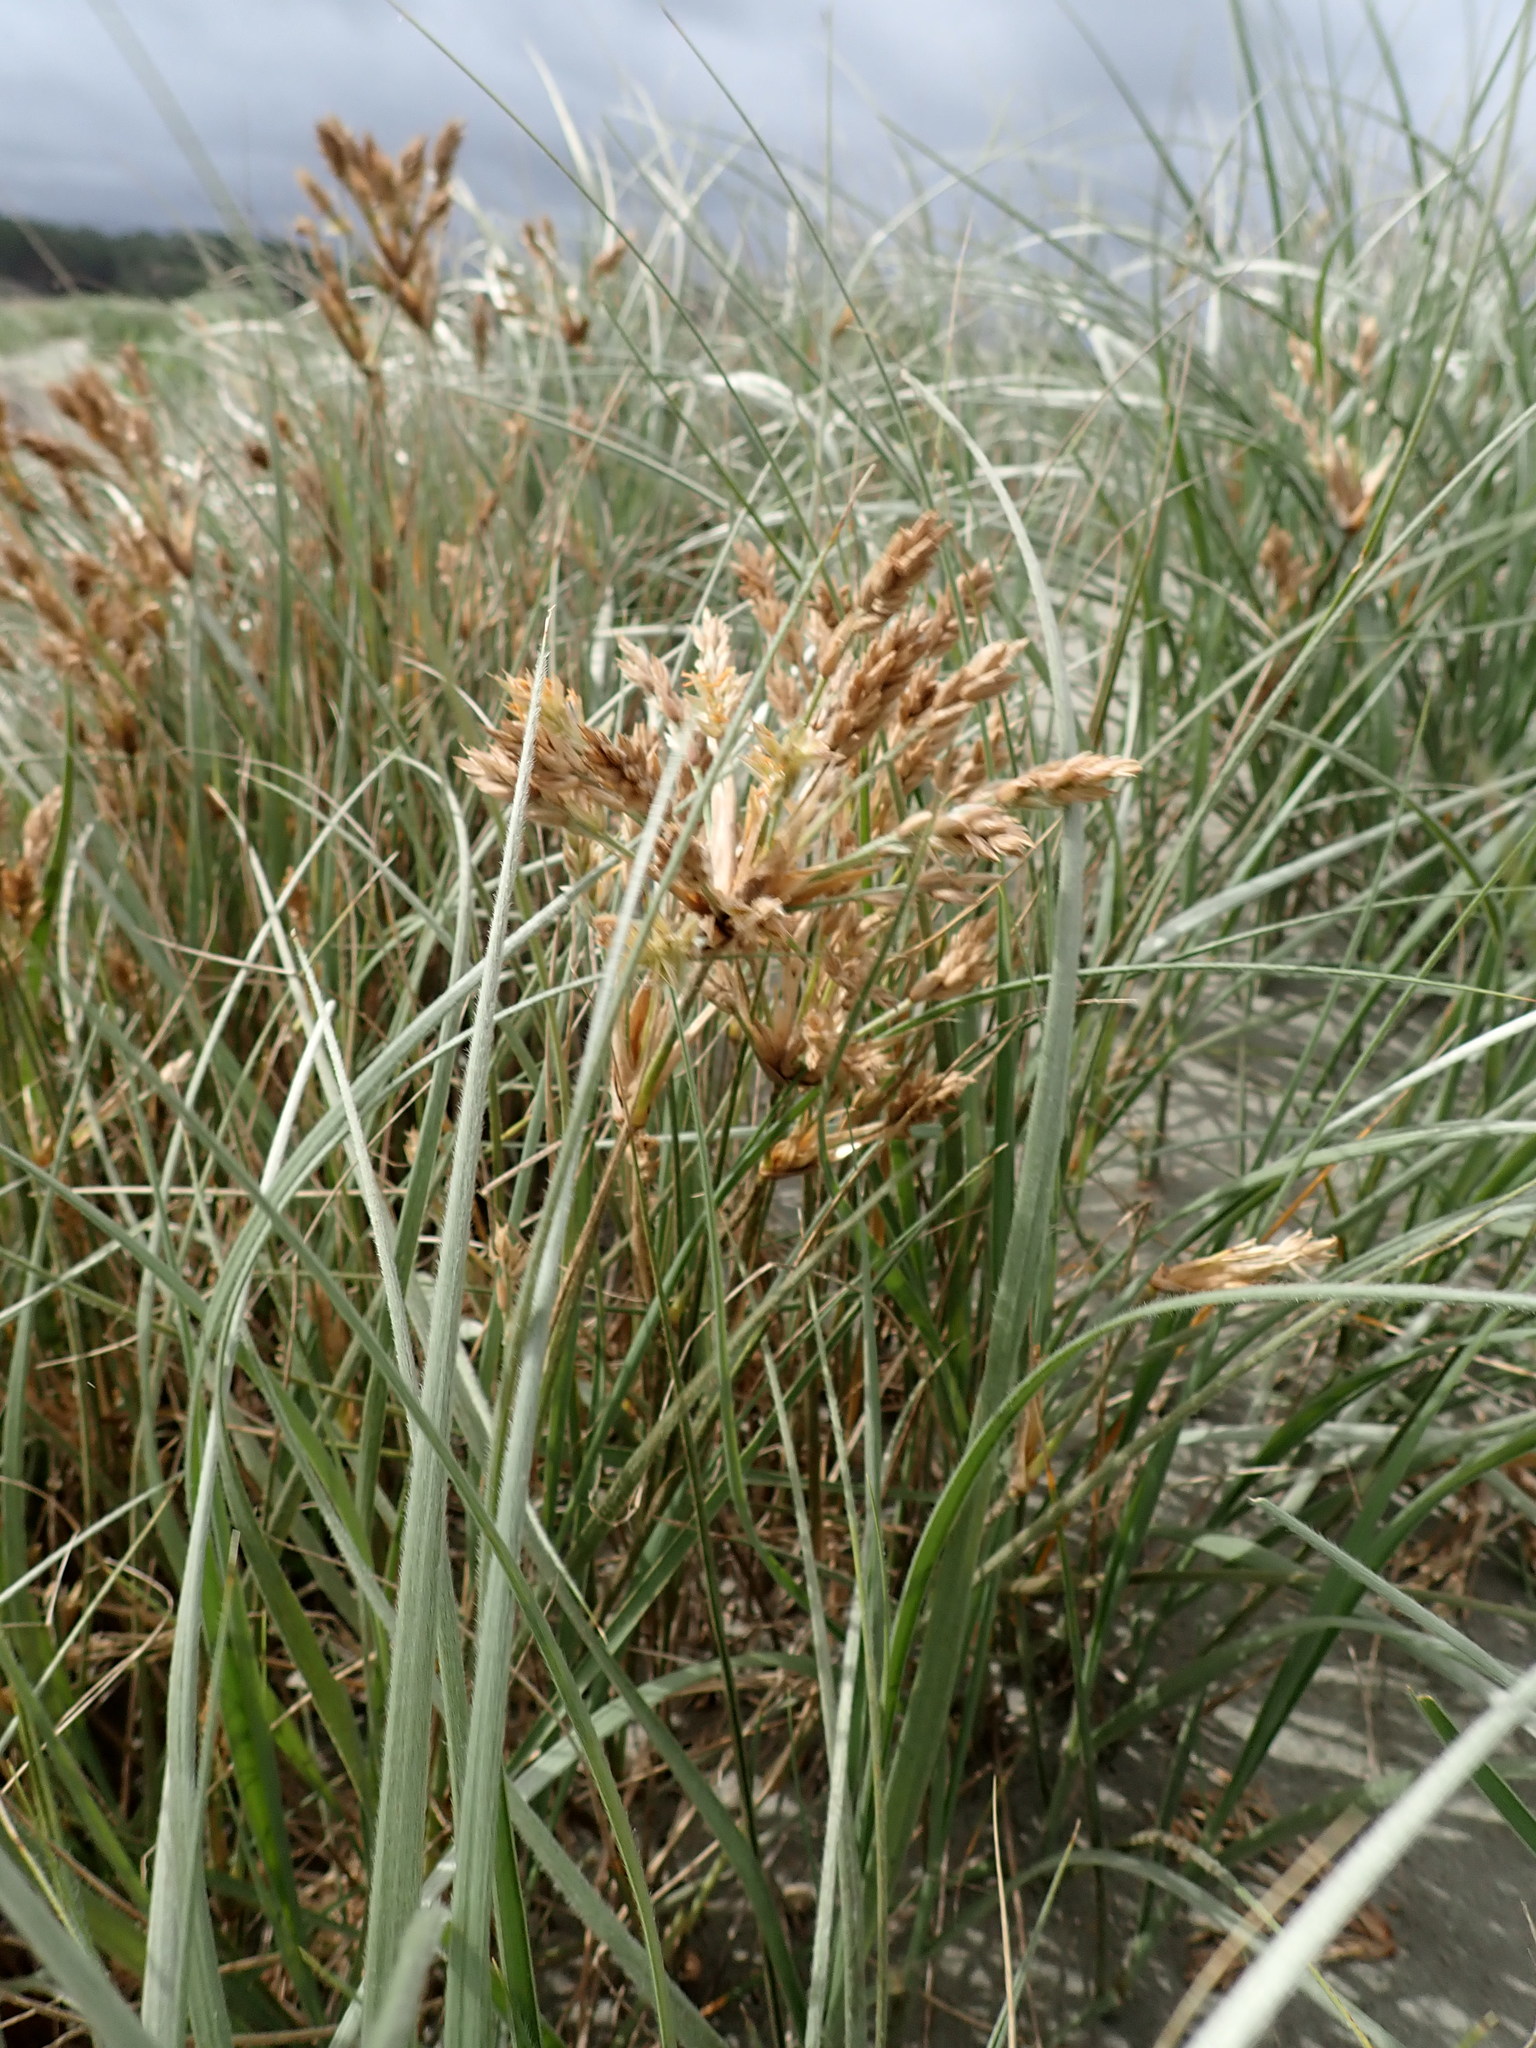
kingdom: Plantae
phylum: Tracheophyta
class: Liliopsida
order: Poales
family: Poaceae
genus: Spinifex
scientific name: Spinifex sericeus
